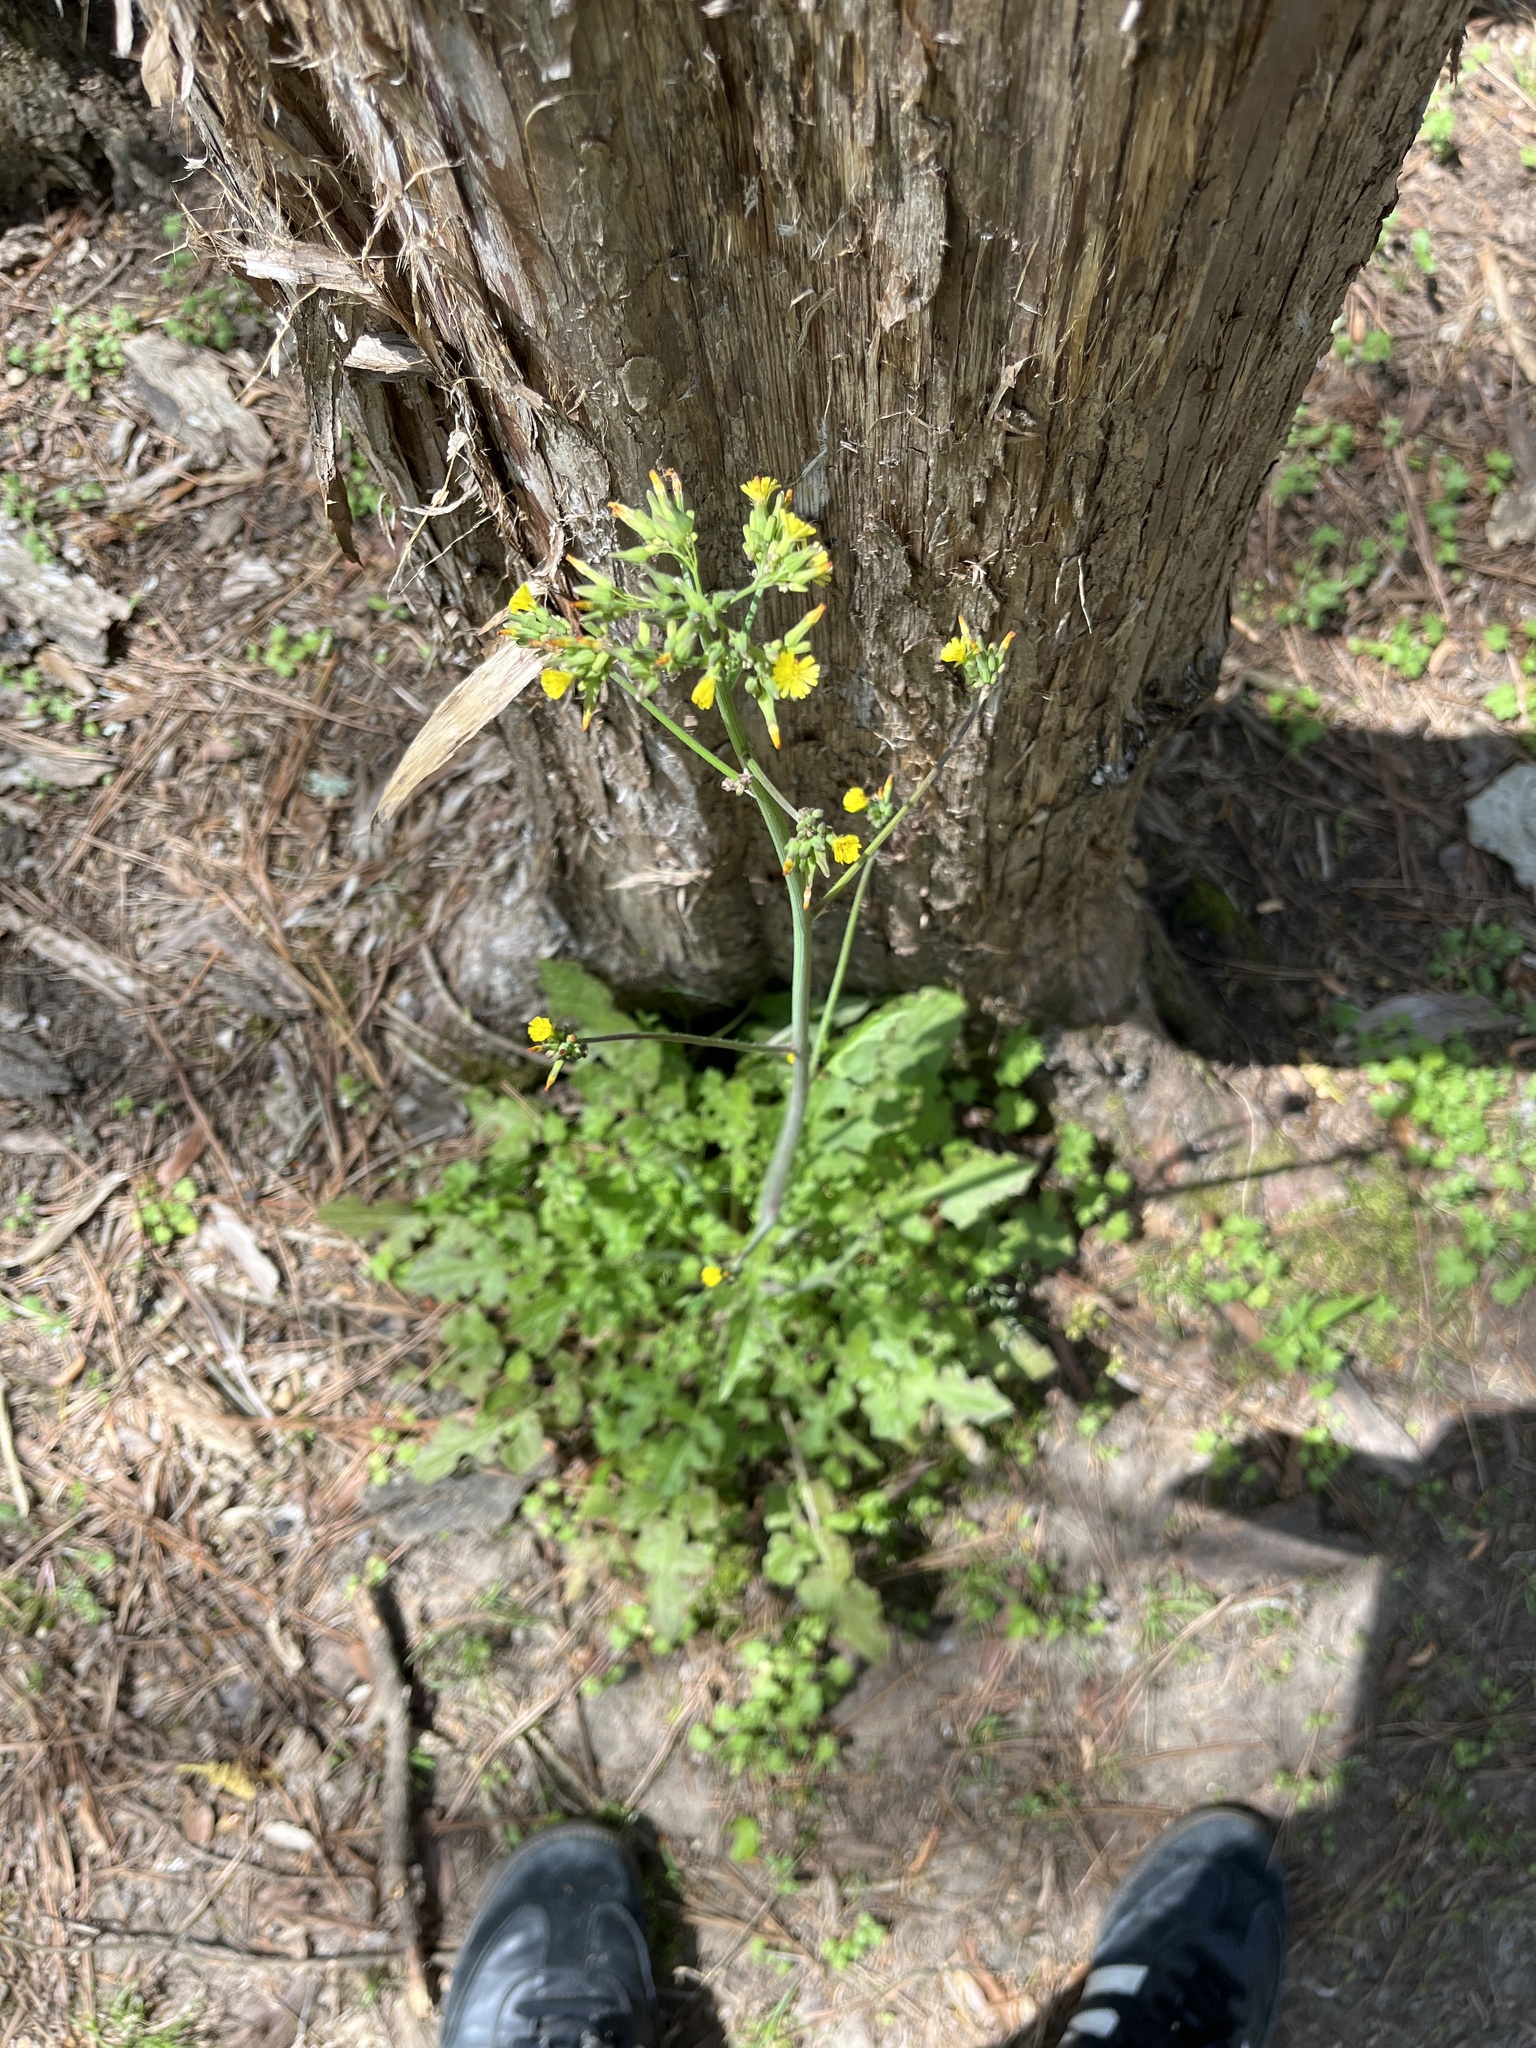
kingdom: Plantae
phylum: Tracheophyta
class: Magnoliopsida
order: Asterales
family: Asteraceae
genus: Youngia
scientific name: Youngia japonica
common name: Oriental false hawksbeard
